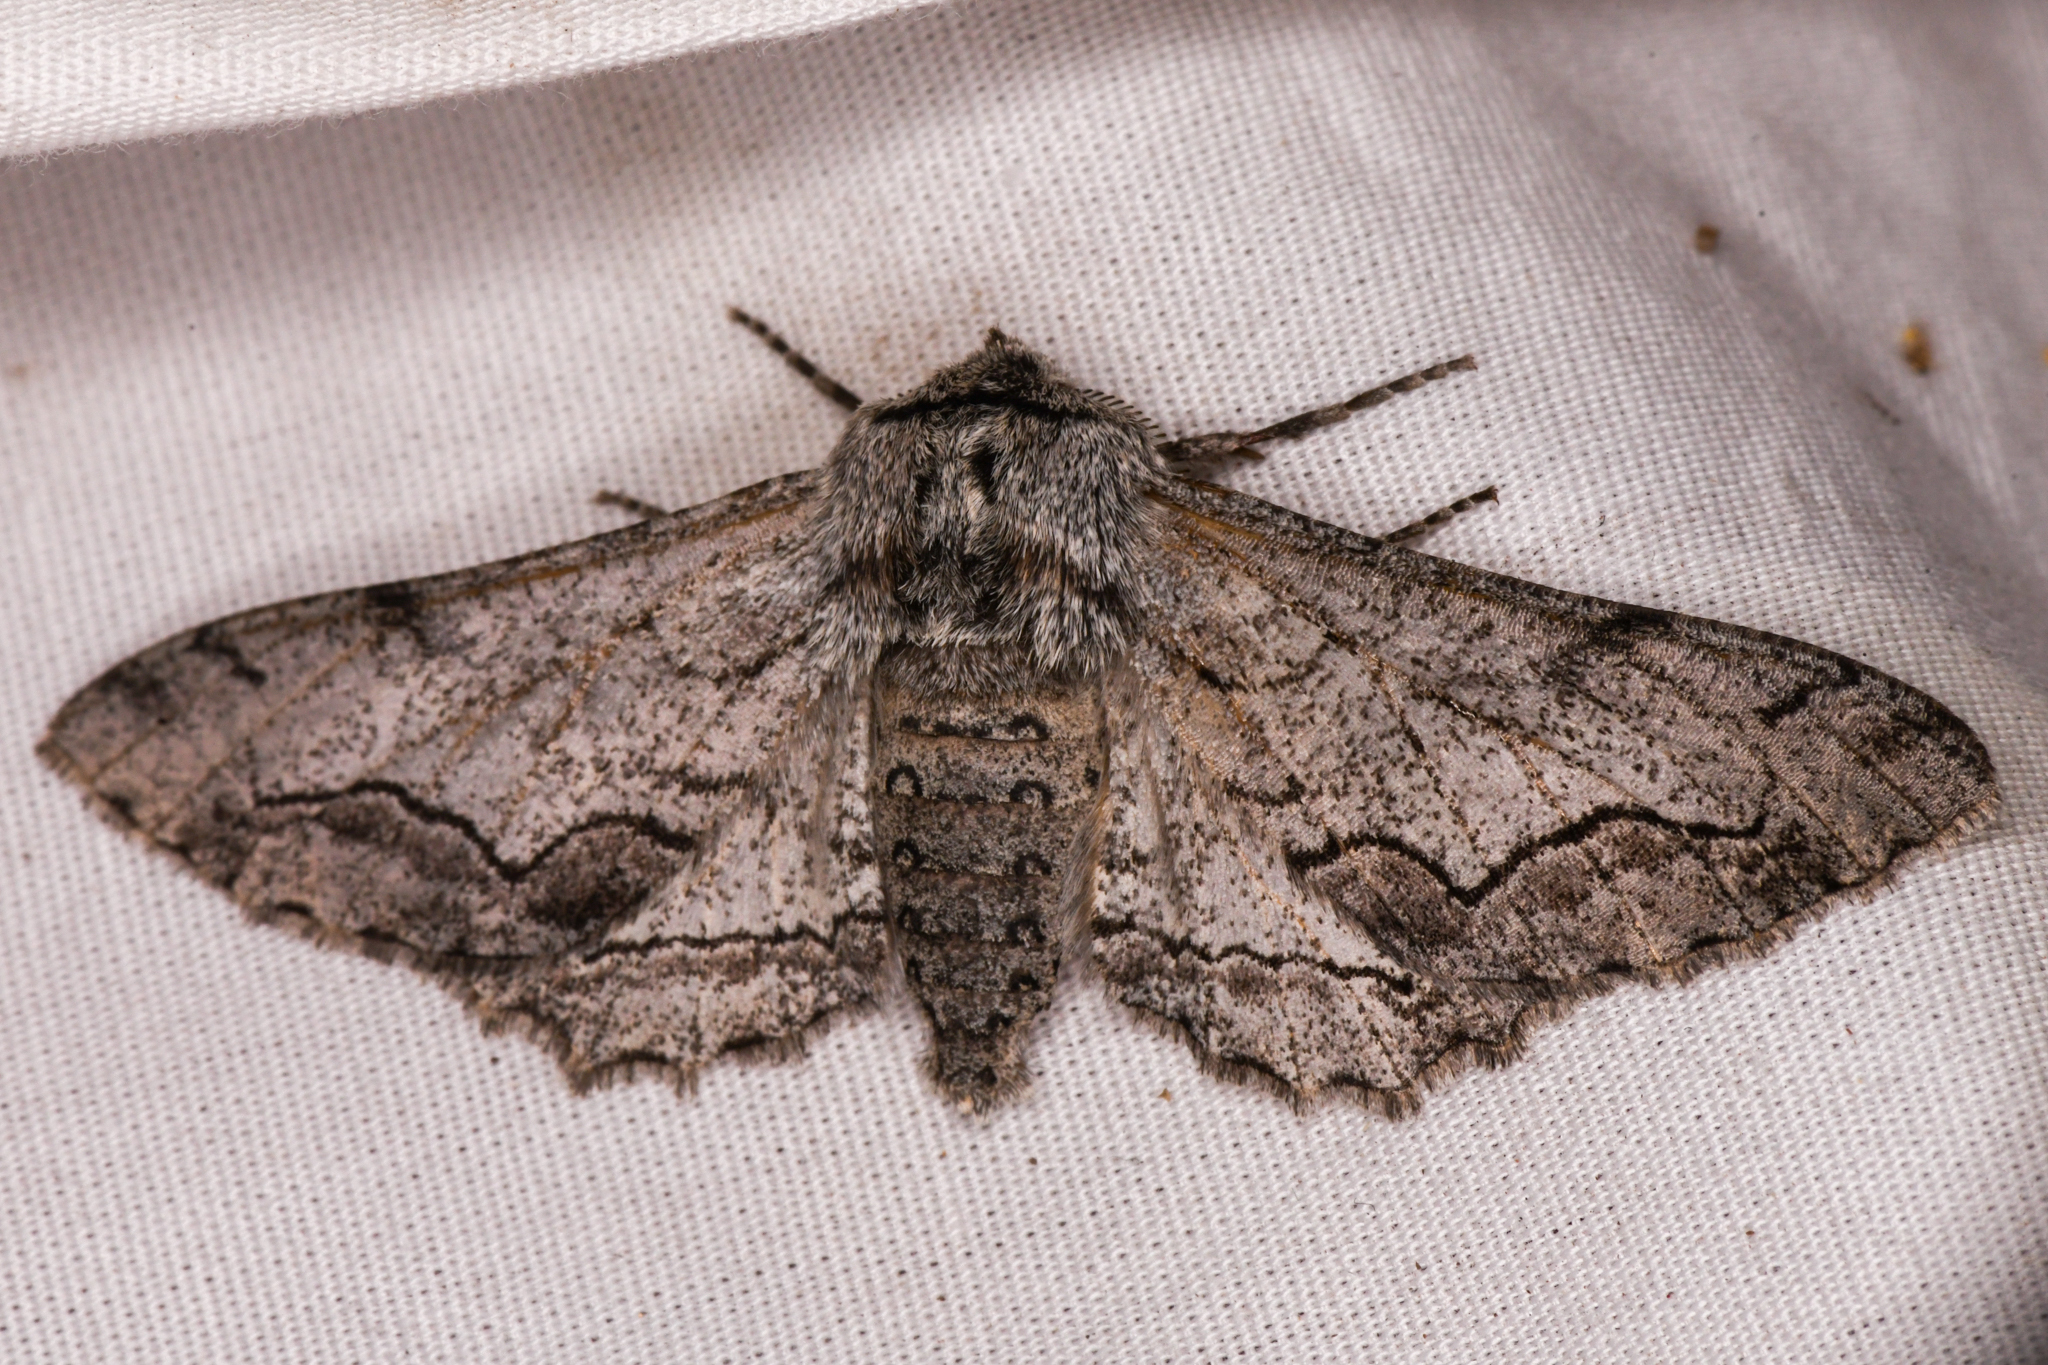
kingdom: Animalia
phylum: Arthropoda
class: Insecta
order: Lepidoptera
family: Geometridae
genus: Biston
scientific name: Biston sinuata
